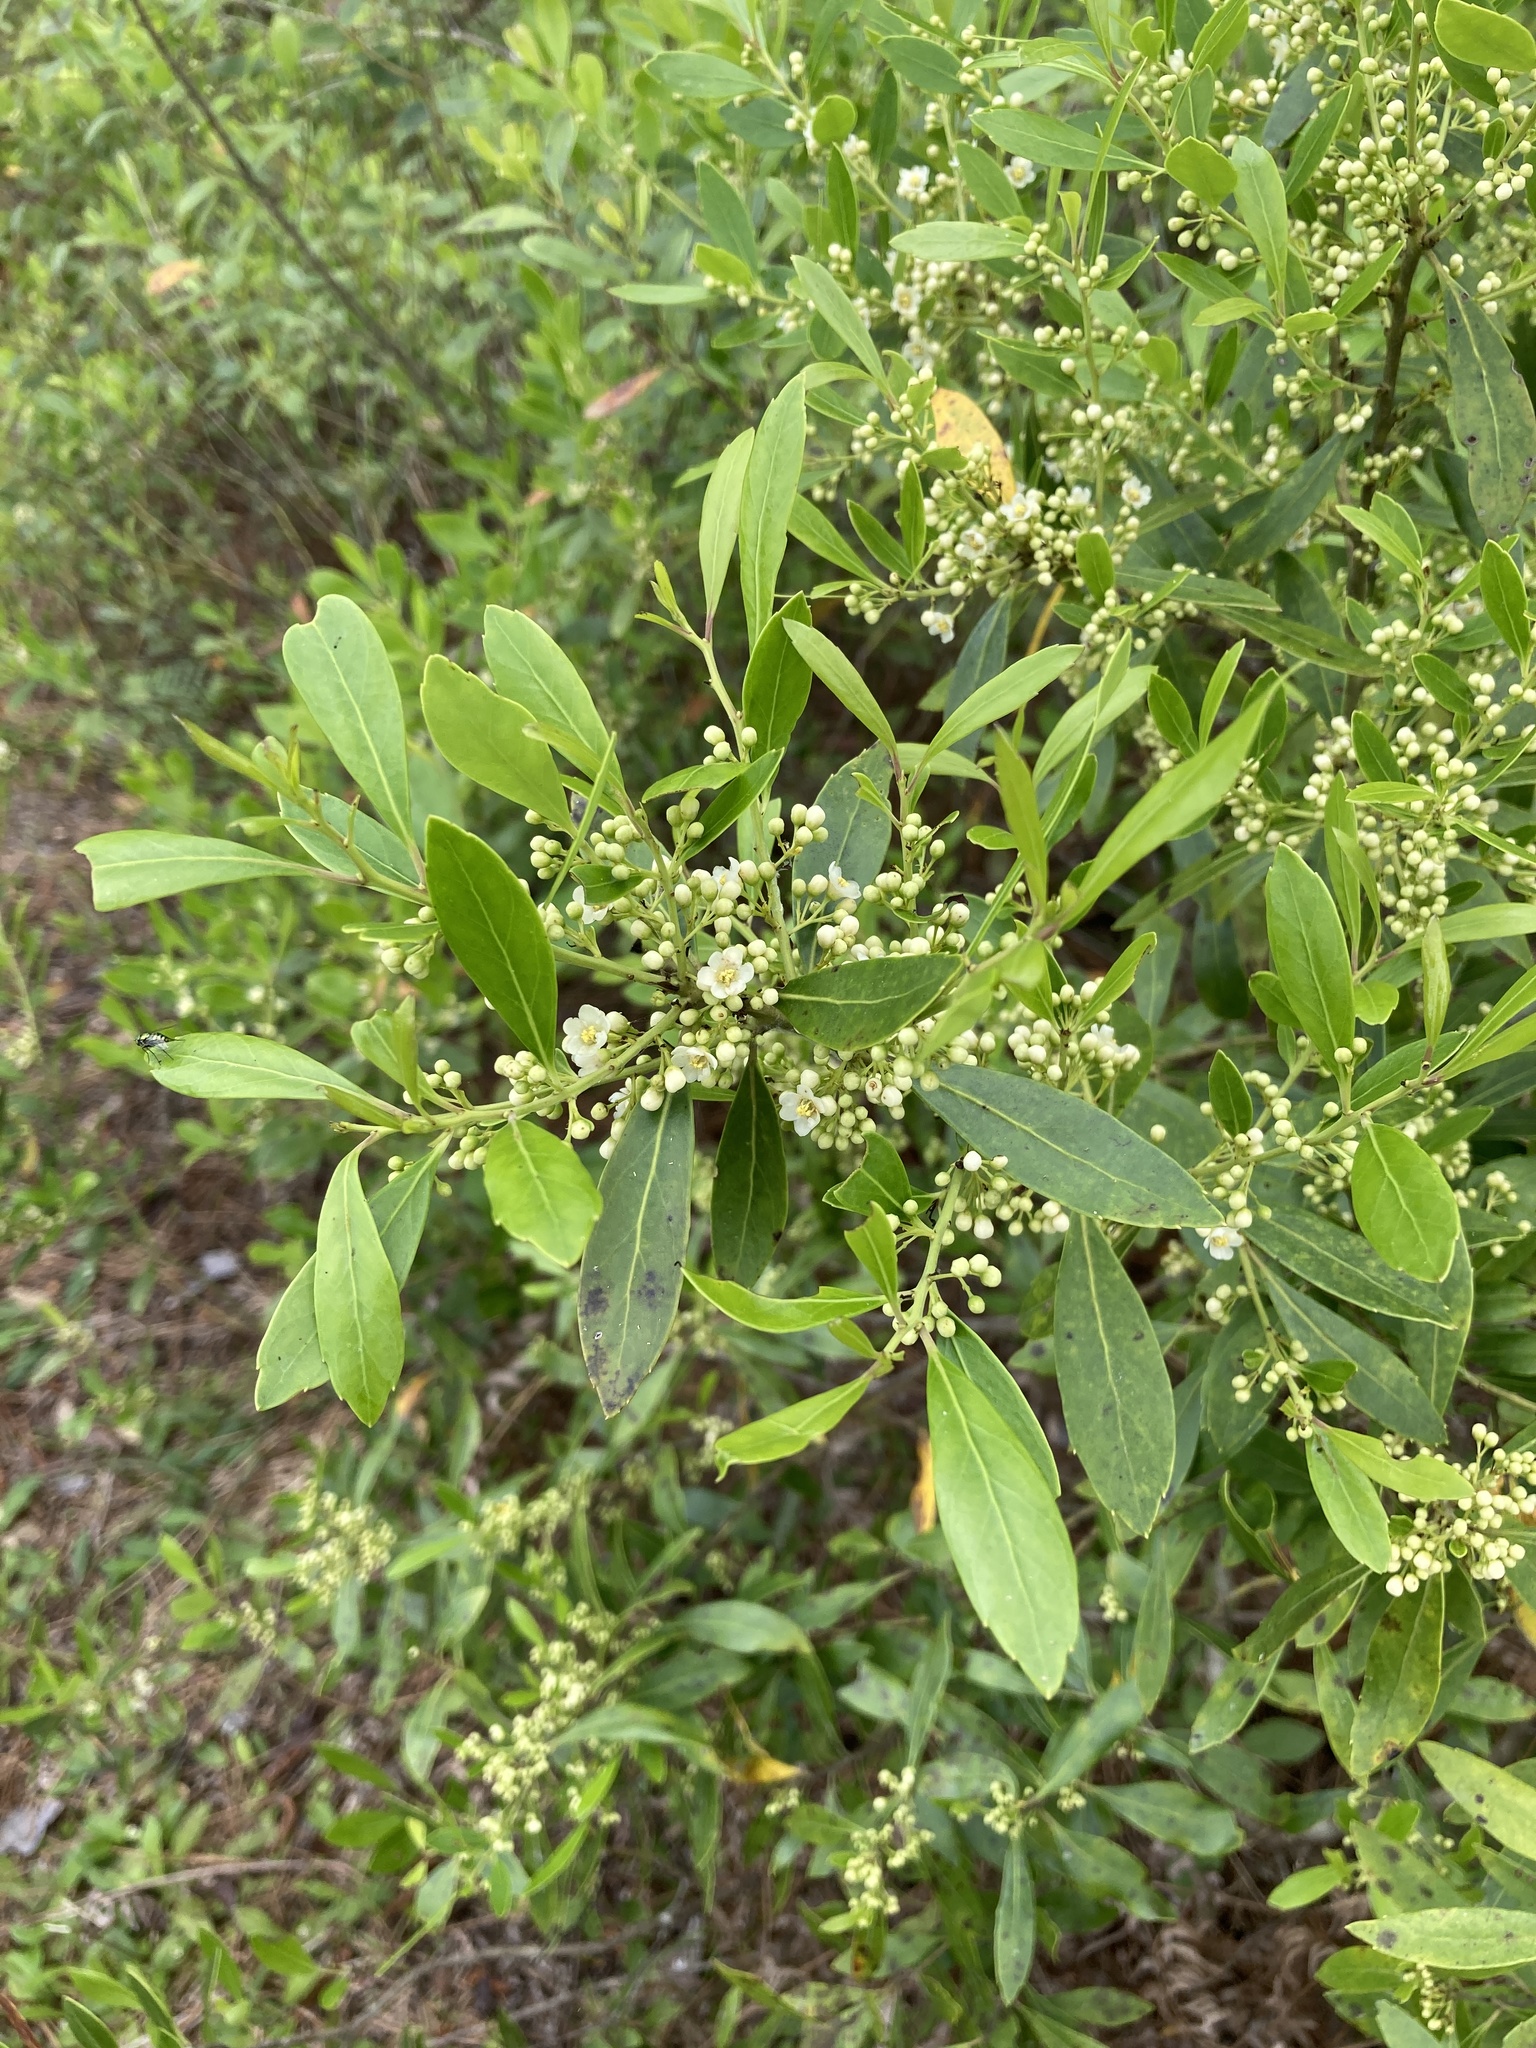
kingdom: Plantae
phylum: Tracheophyta
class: Magnoliopsida
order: Aquifoliales
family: Aquifoliaceae
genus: Ilex
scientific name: Ilex glabra
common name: Bitter gallberry
